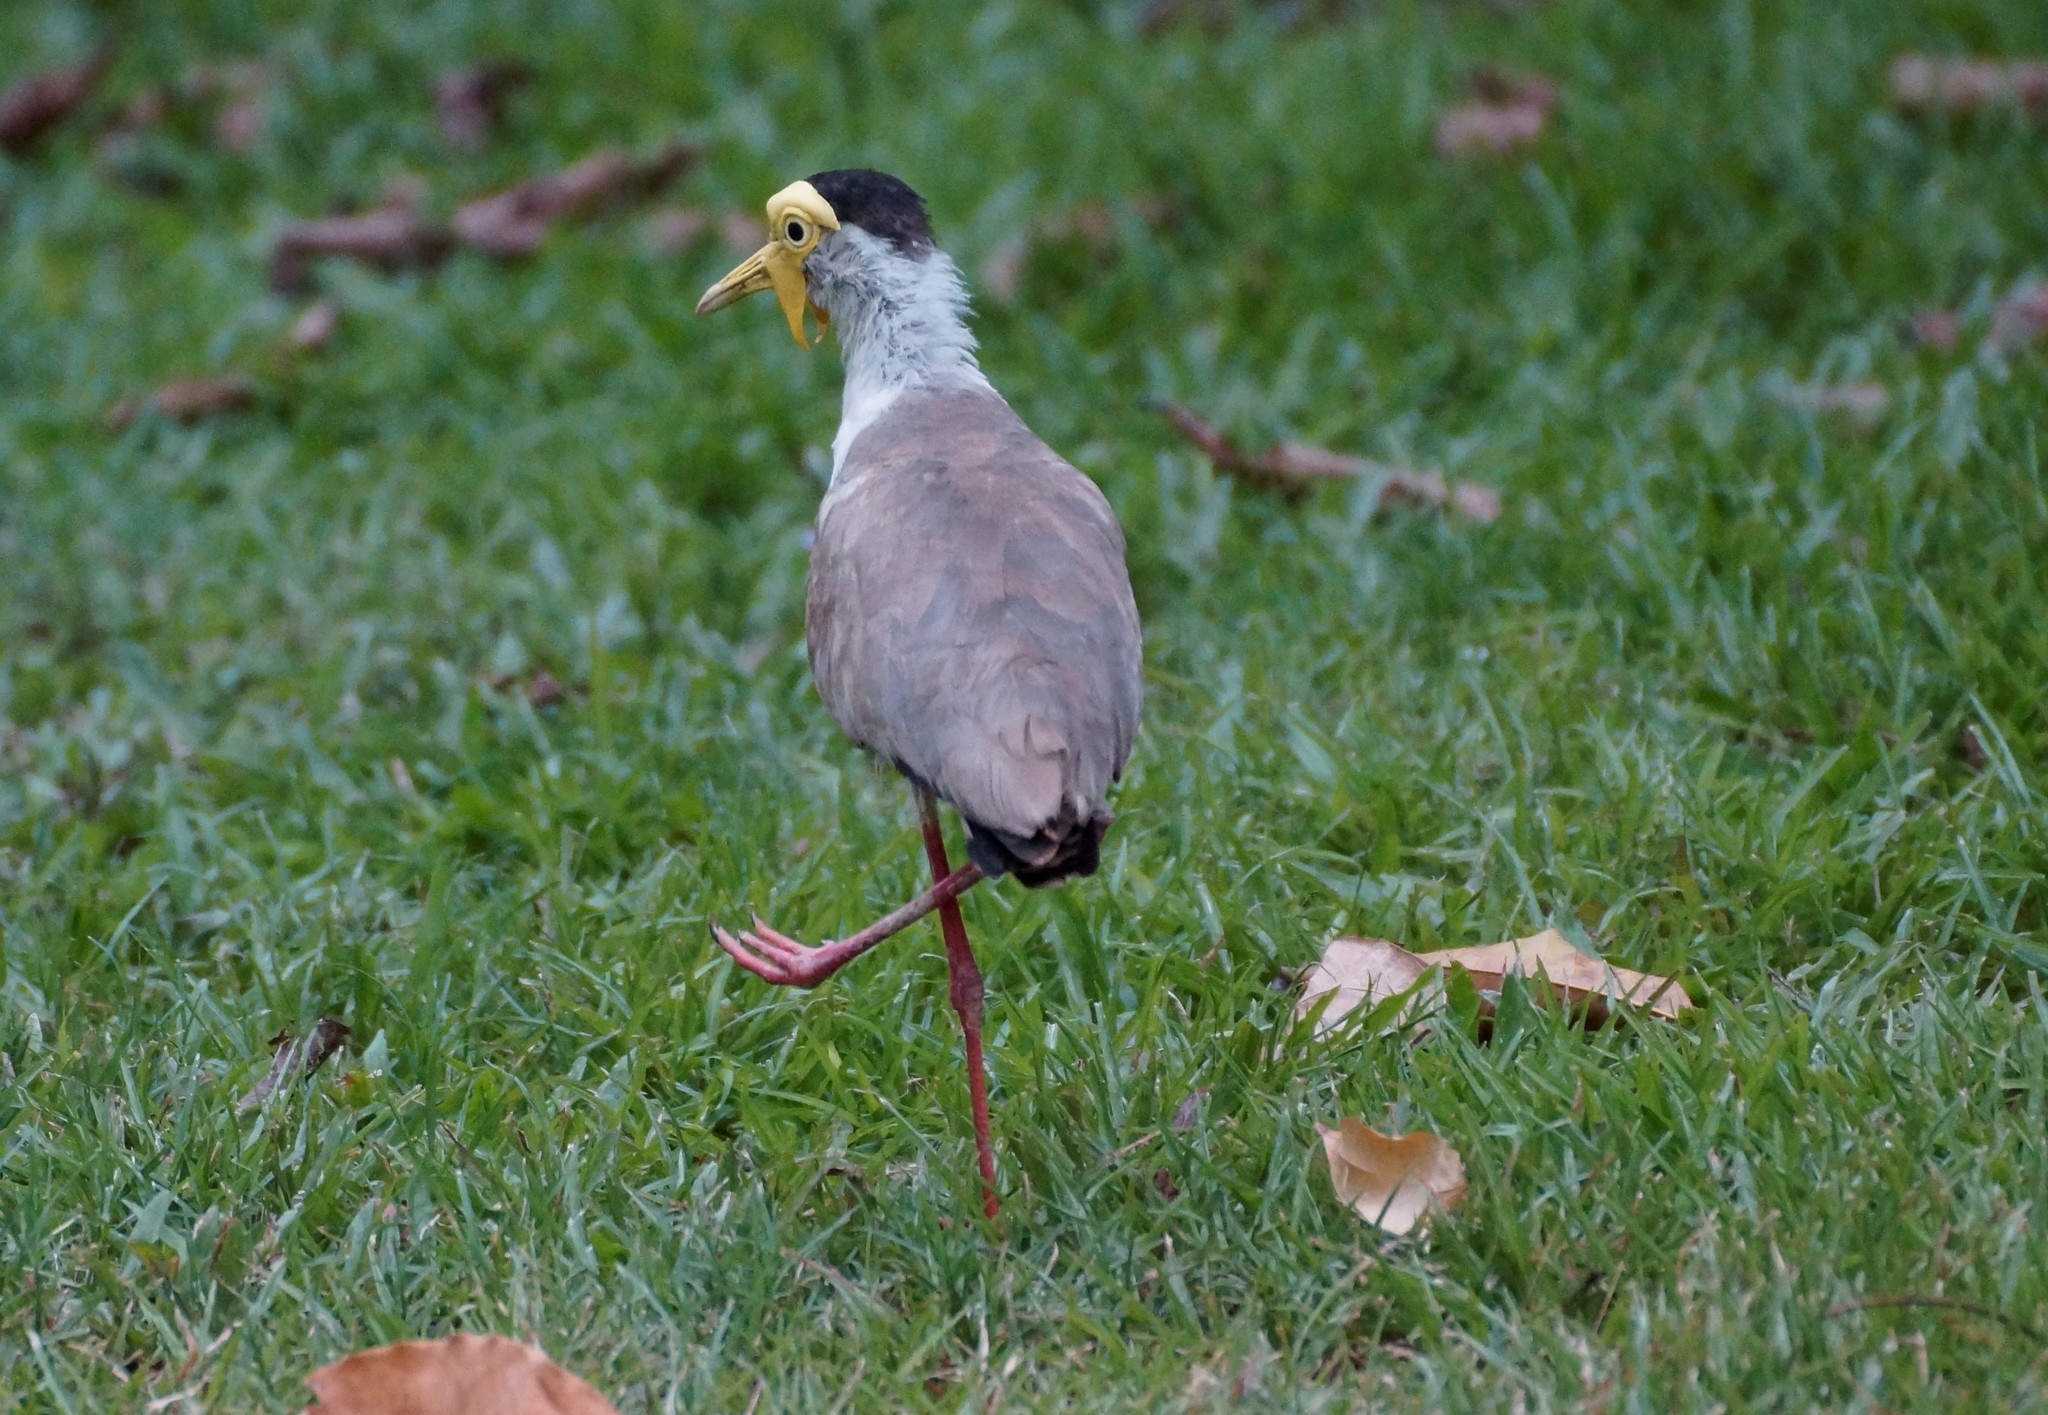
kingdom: Animalia
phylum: Chordata
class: Aves
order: Charadriiformes
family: Charadriidae
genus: Vanellus
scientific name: Vanellus miles
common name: Masked lapwing
